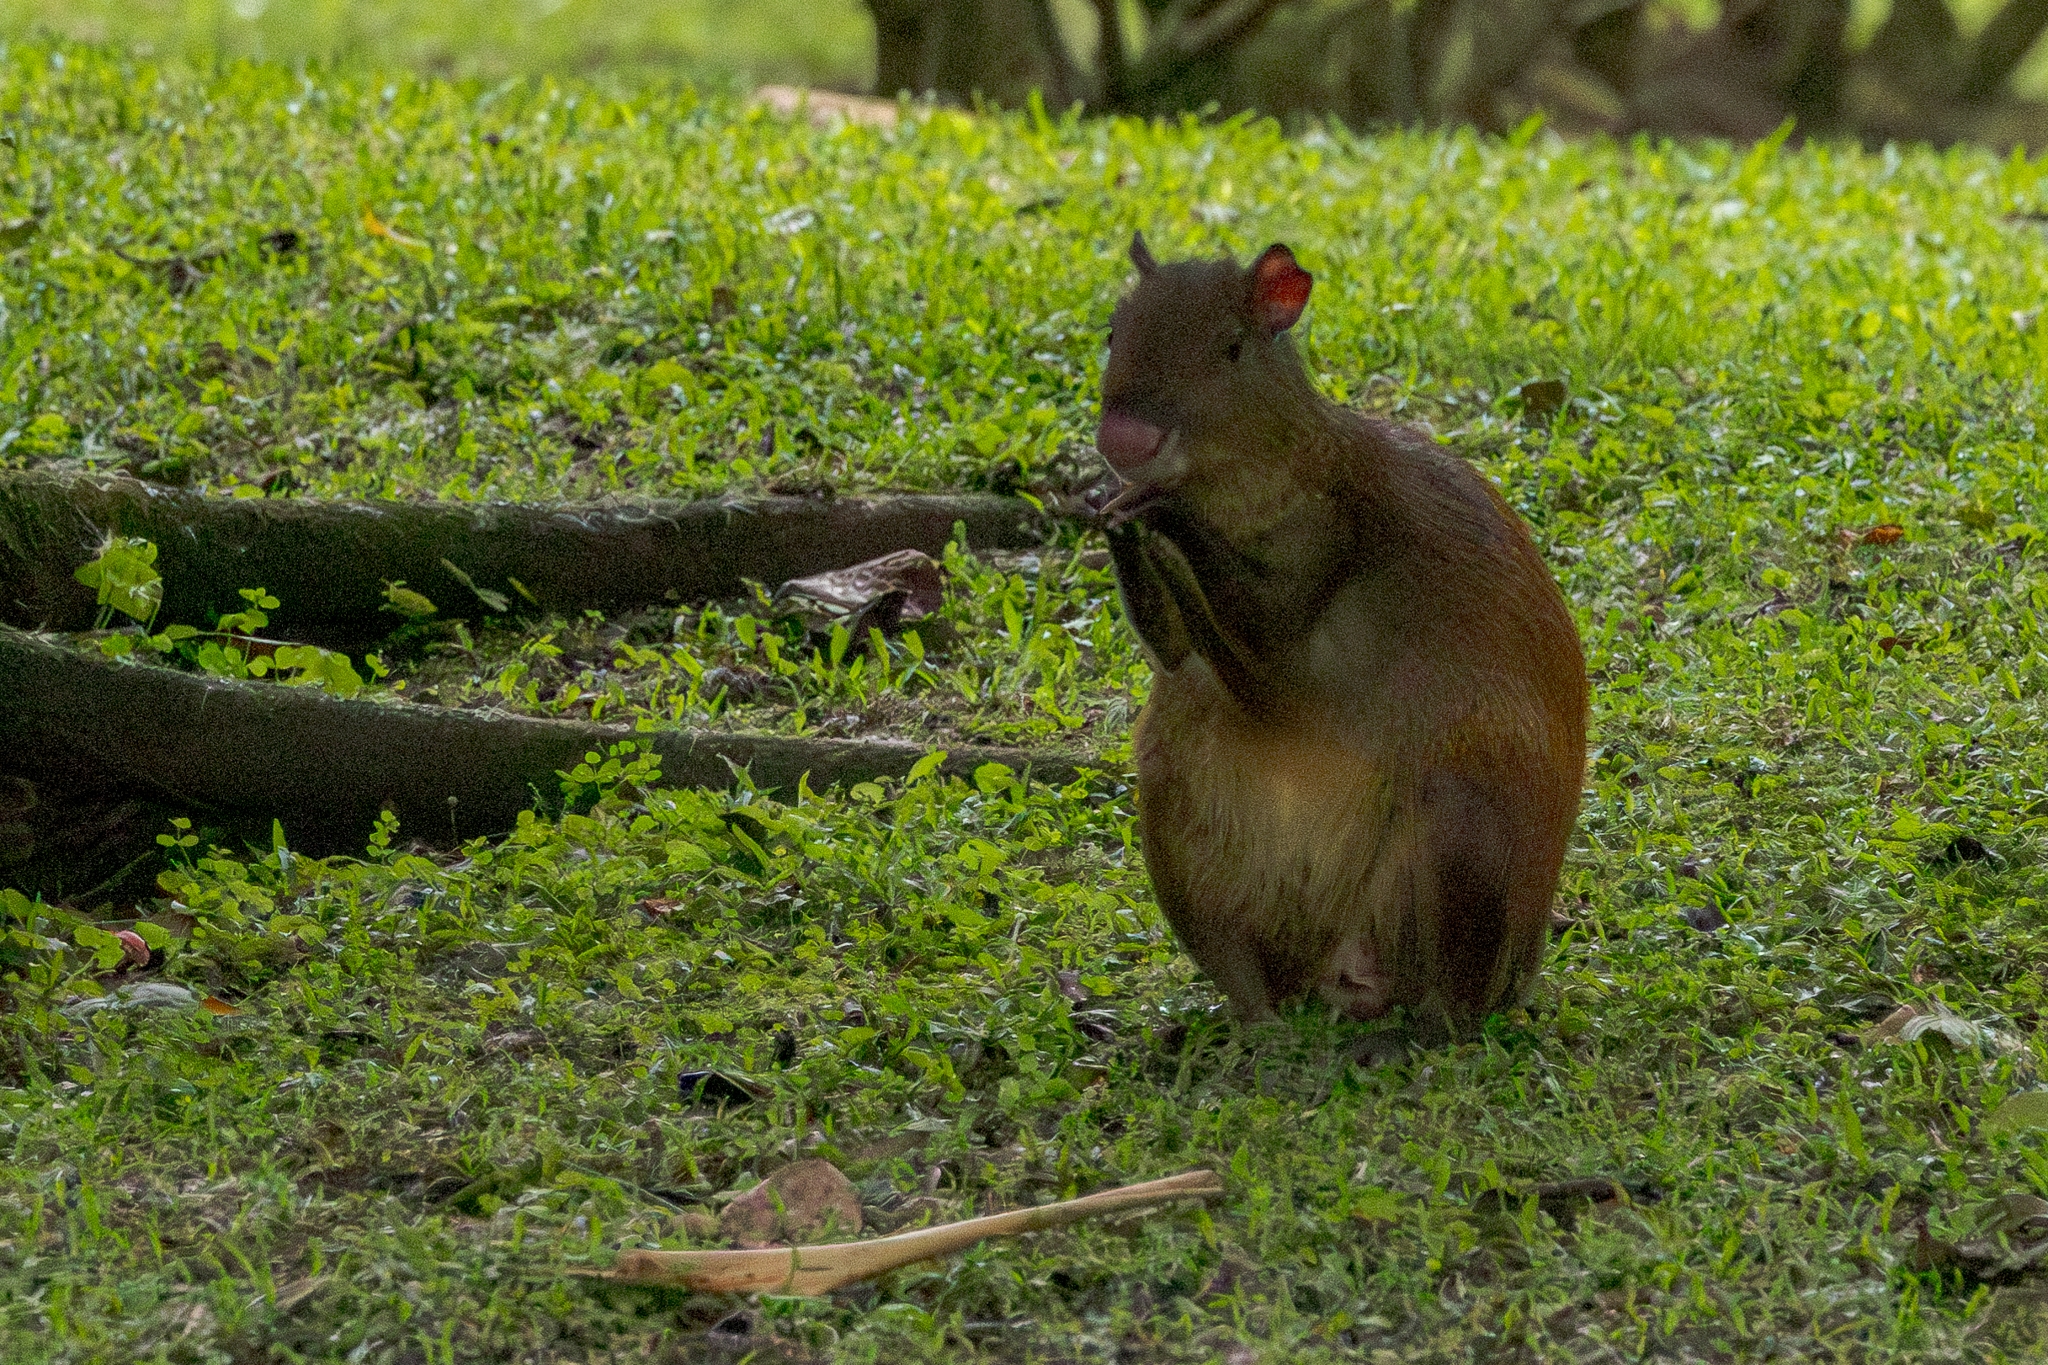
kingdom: Animalia
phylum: Chordata
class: Mammalia
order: Rodentia
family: Dasyproctidae
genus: Dasyprocta
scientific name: Dasyprocta punctata
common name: Central american agouti
